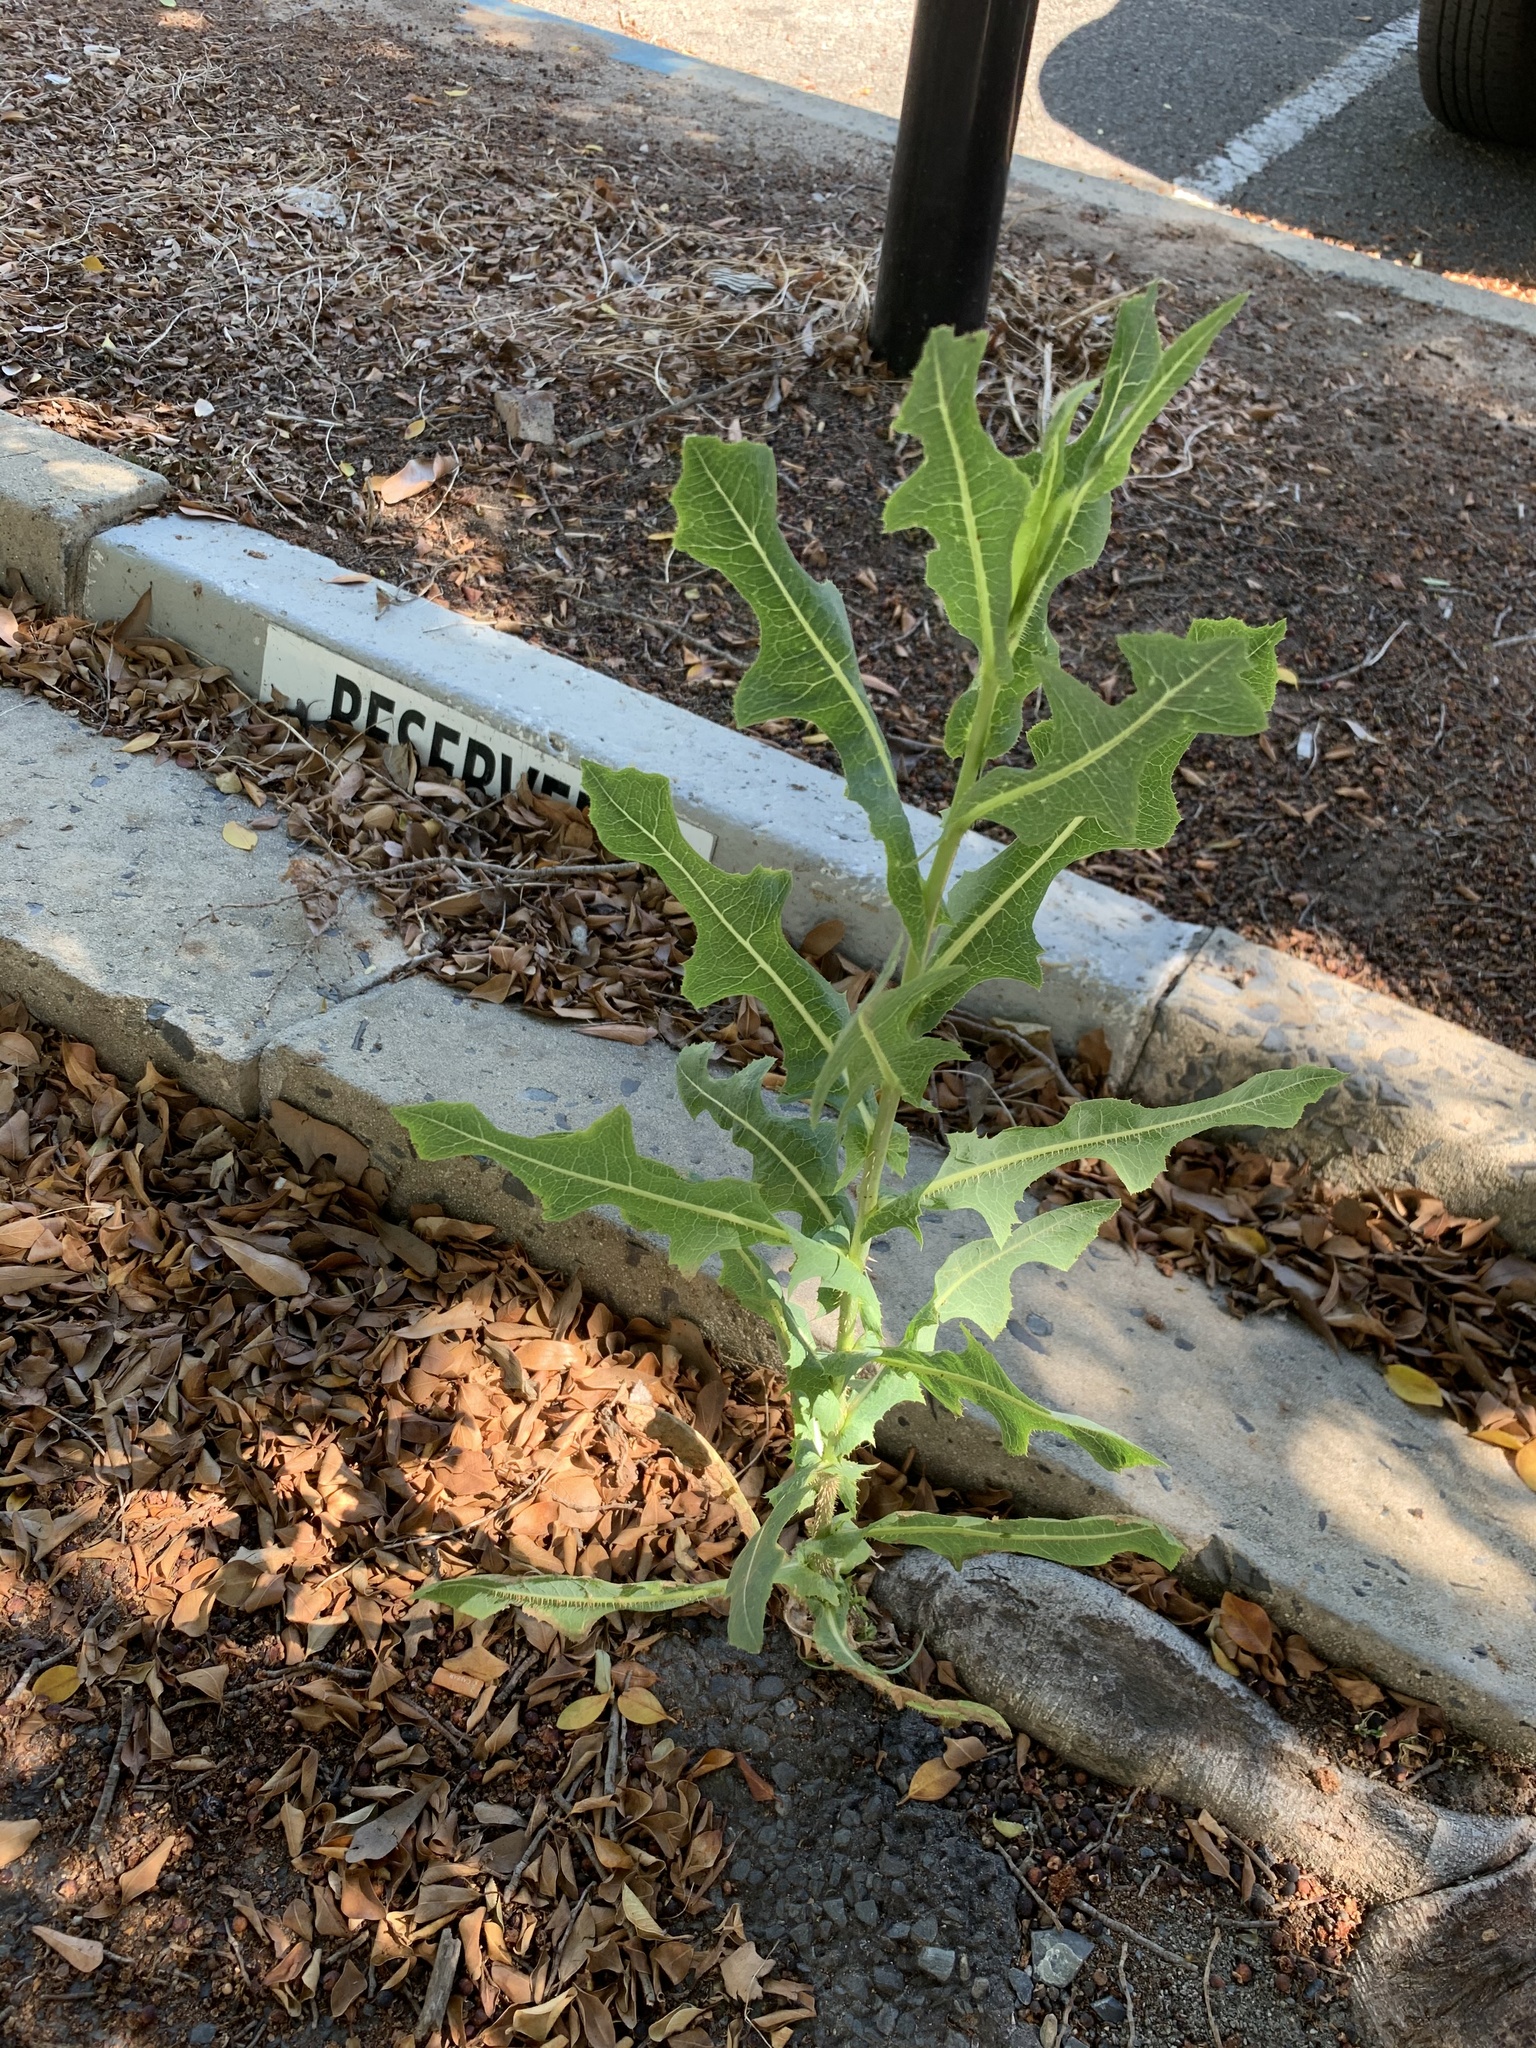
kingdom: Plantae
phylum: Tracheophyta
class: Magnoliopsida
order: Asterales
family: Asteraceae
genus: Lactuca
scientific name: Lactuca serriola
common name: Prickly lettuce
